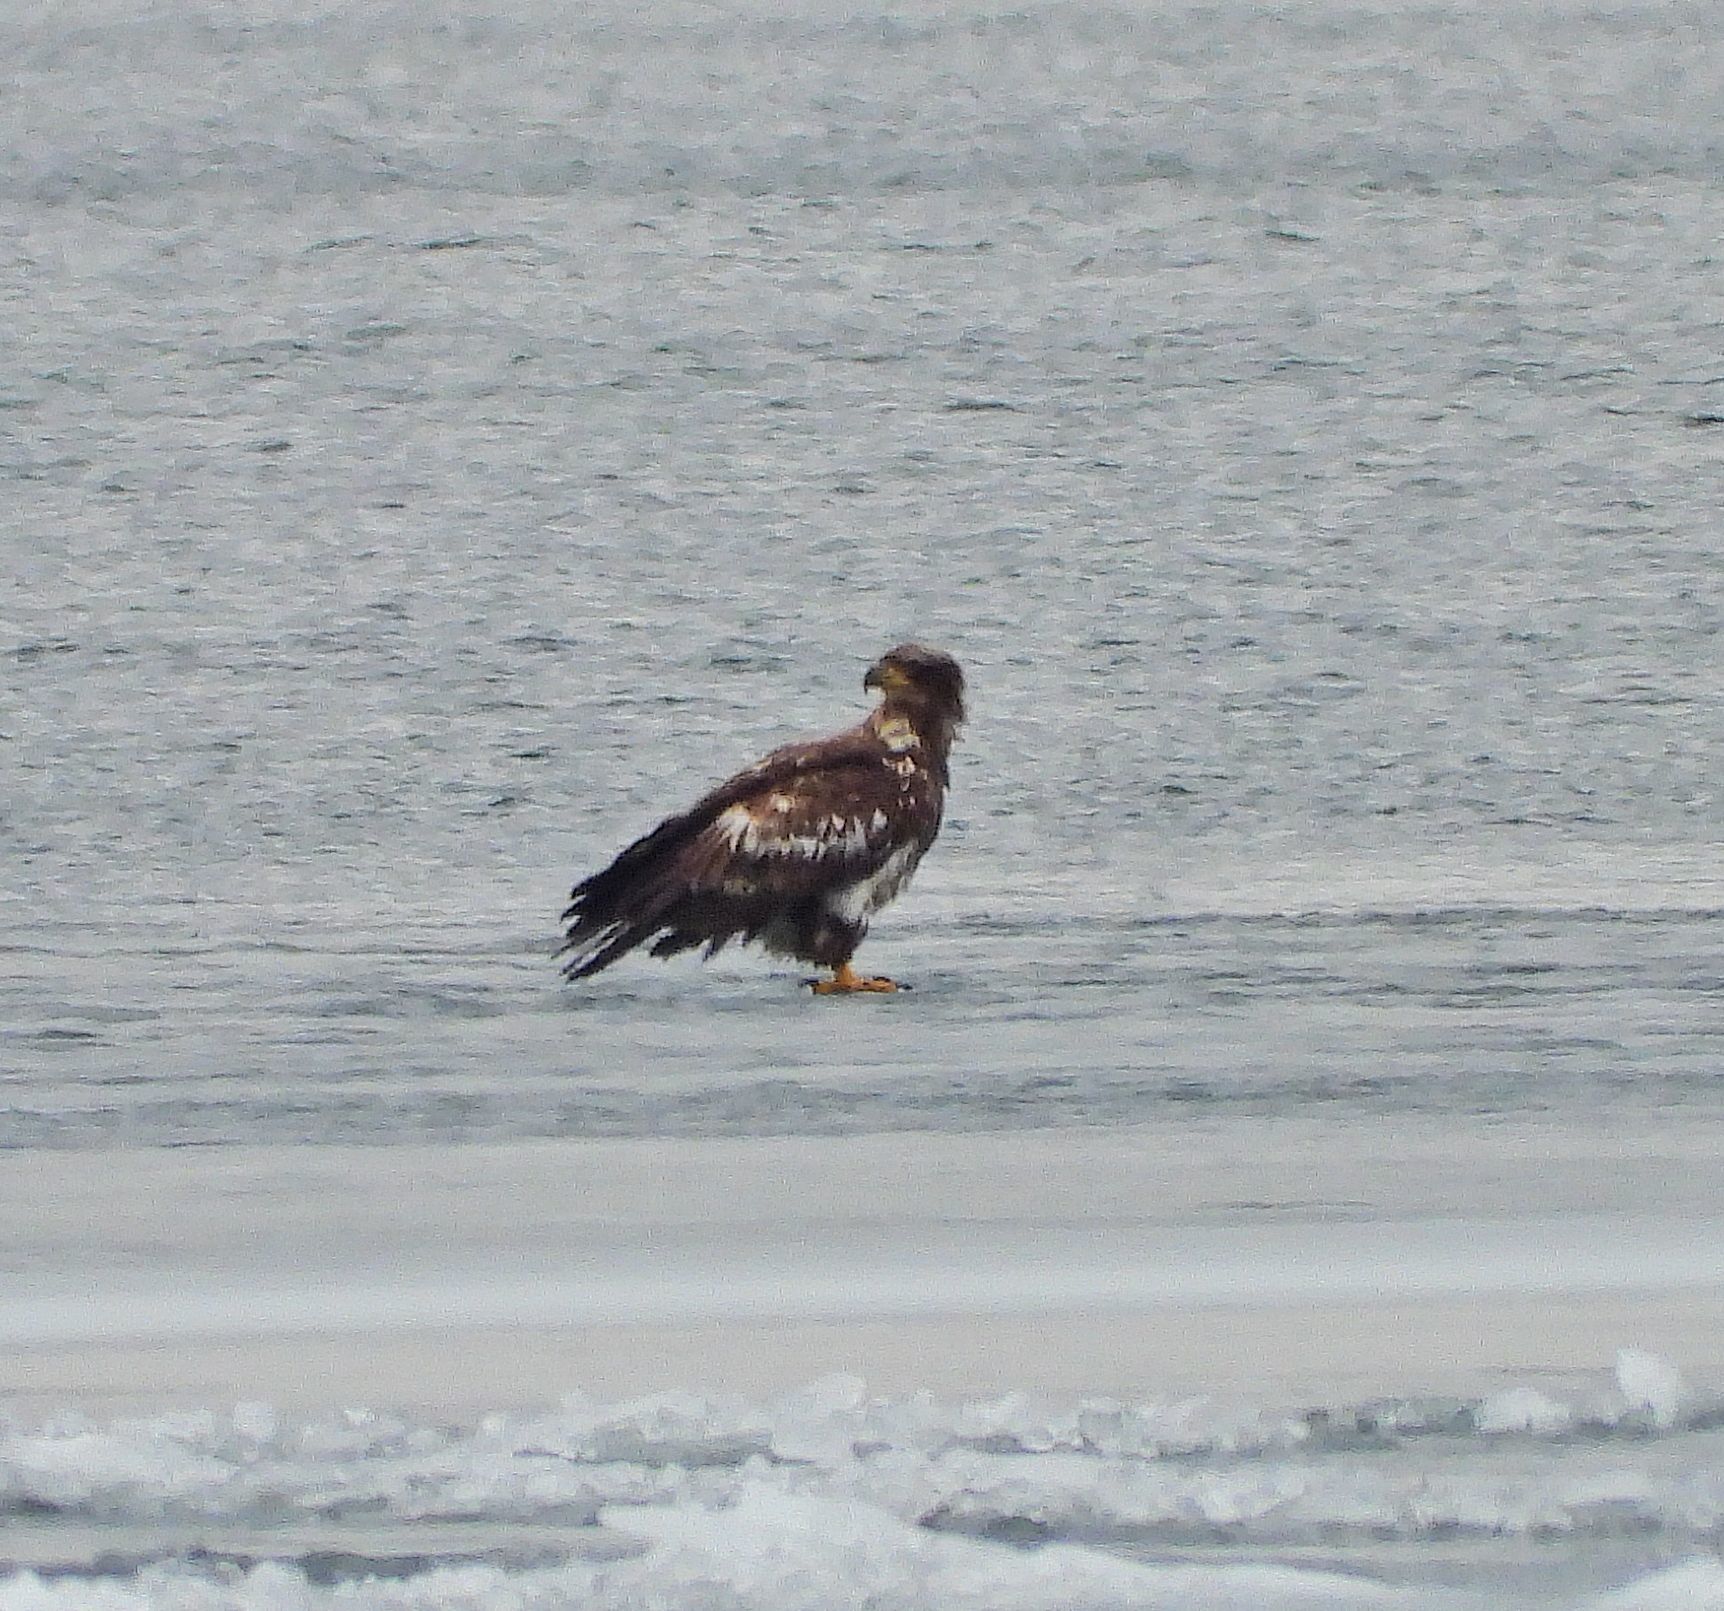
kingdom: Animalia
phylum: Chordata
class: Aves
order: Accipitriformes
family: Accipitridae
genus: Haliaeetus
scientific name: Haliaeetus leucocephalus
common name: Bald eagle
